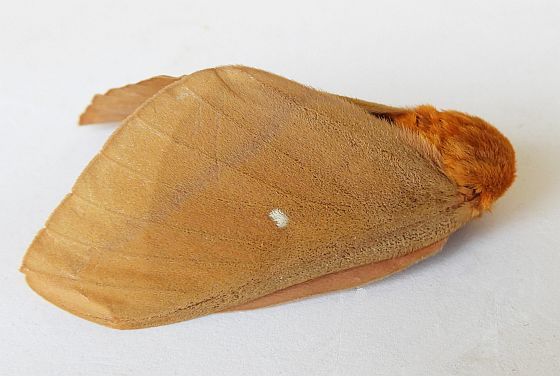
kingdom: Animalia
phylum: Arthropoda
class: Insecta
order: Lepidoptera
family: Saturniidae
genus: Anisota
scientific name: Anisota oslari
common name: Oslar's oakworm moth
